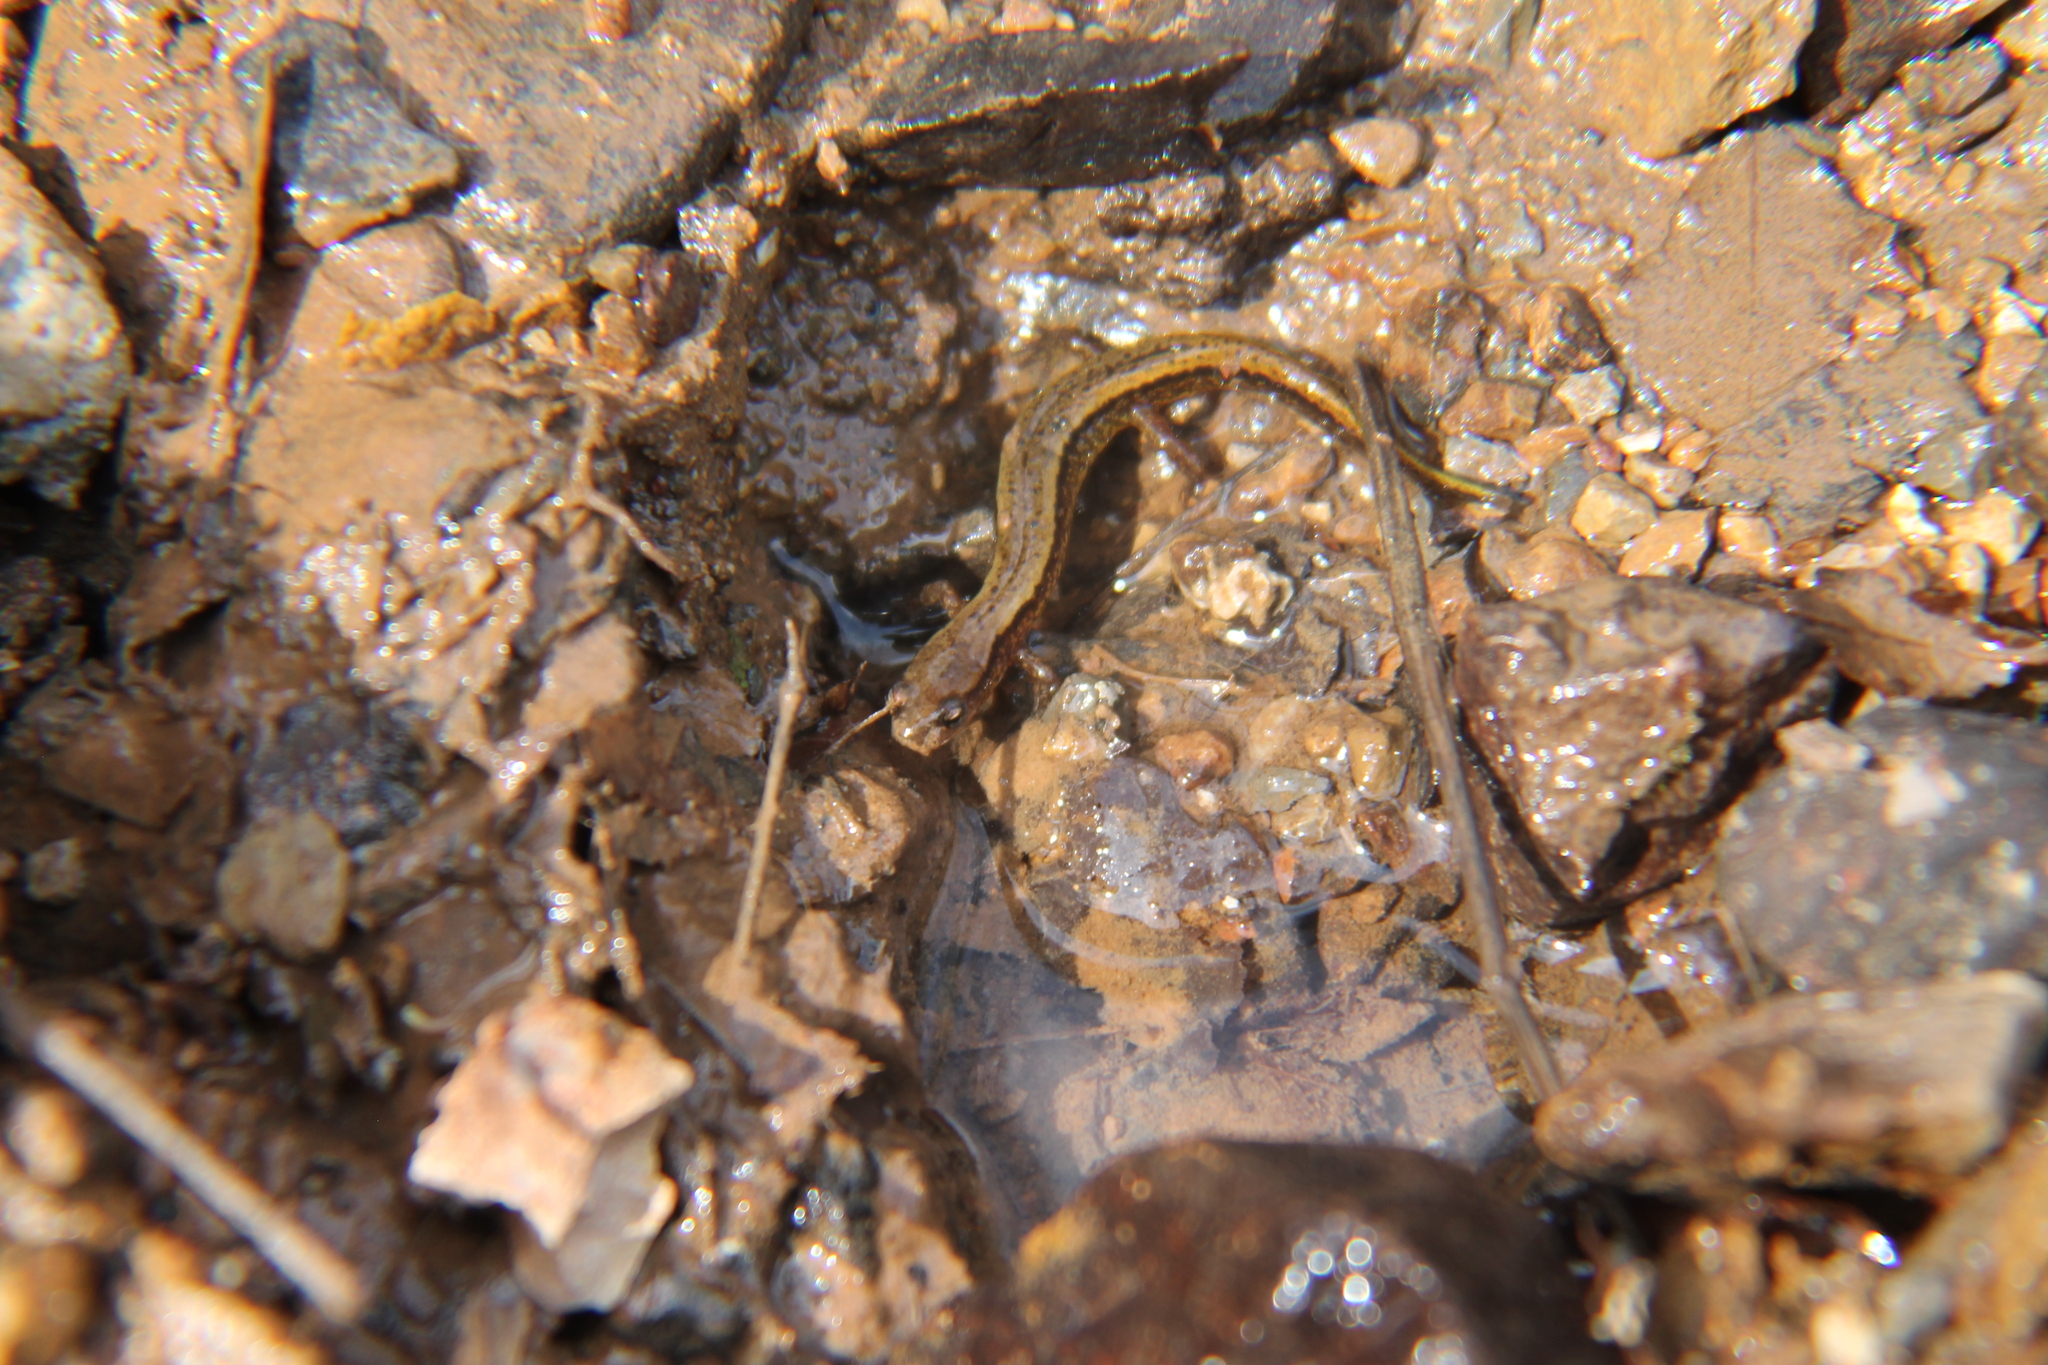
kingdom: Animalia
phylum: Chordata
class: Amphibia
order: Caudata
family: Plethodontidae
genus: Eurycea
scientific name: Eurycea cirrigera
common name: Southern two-lined salamander
